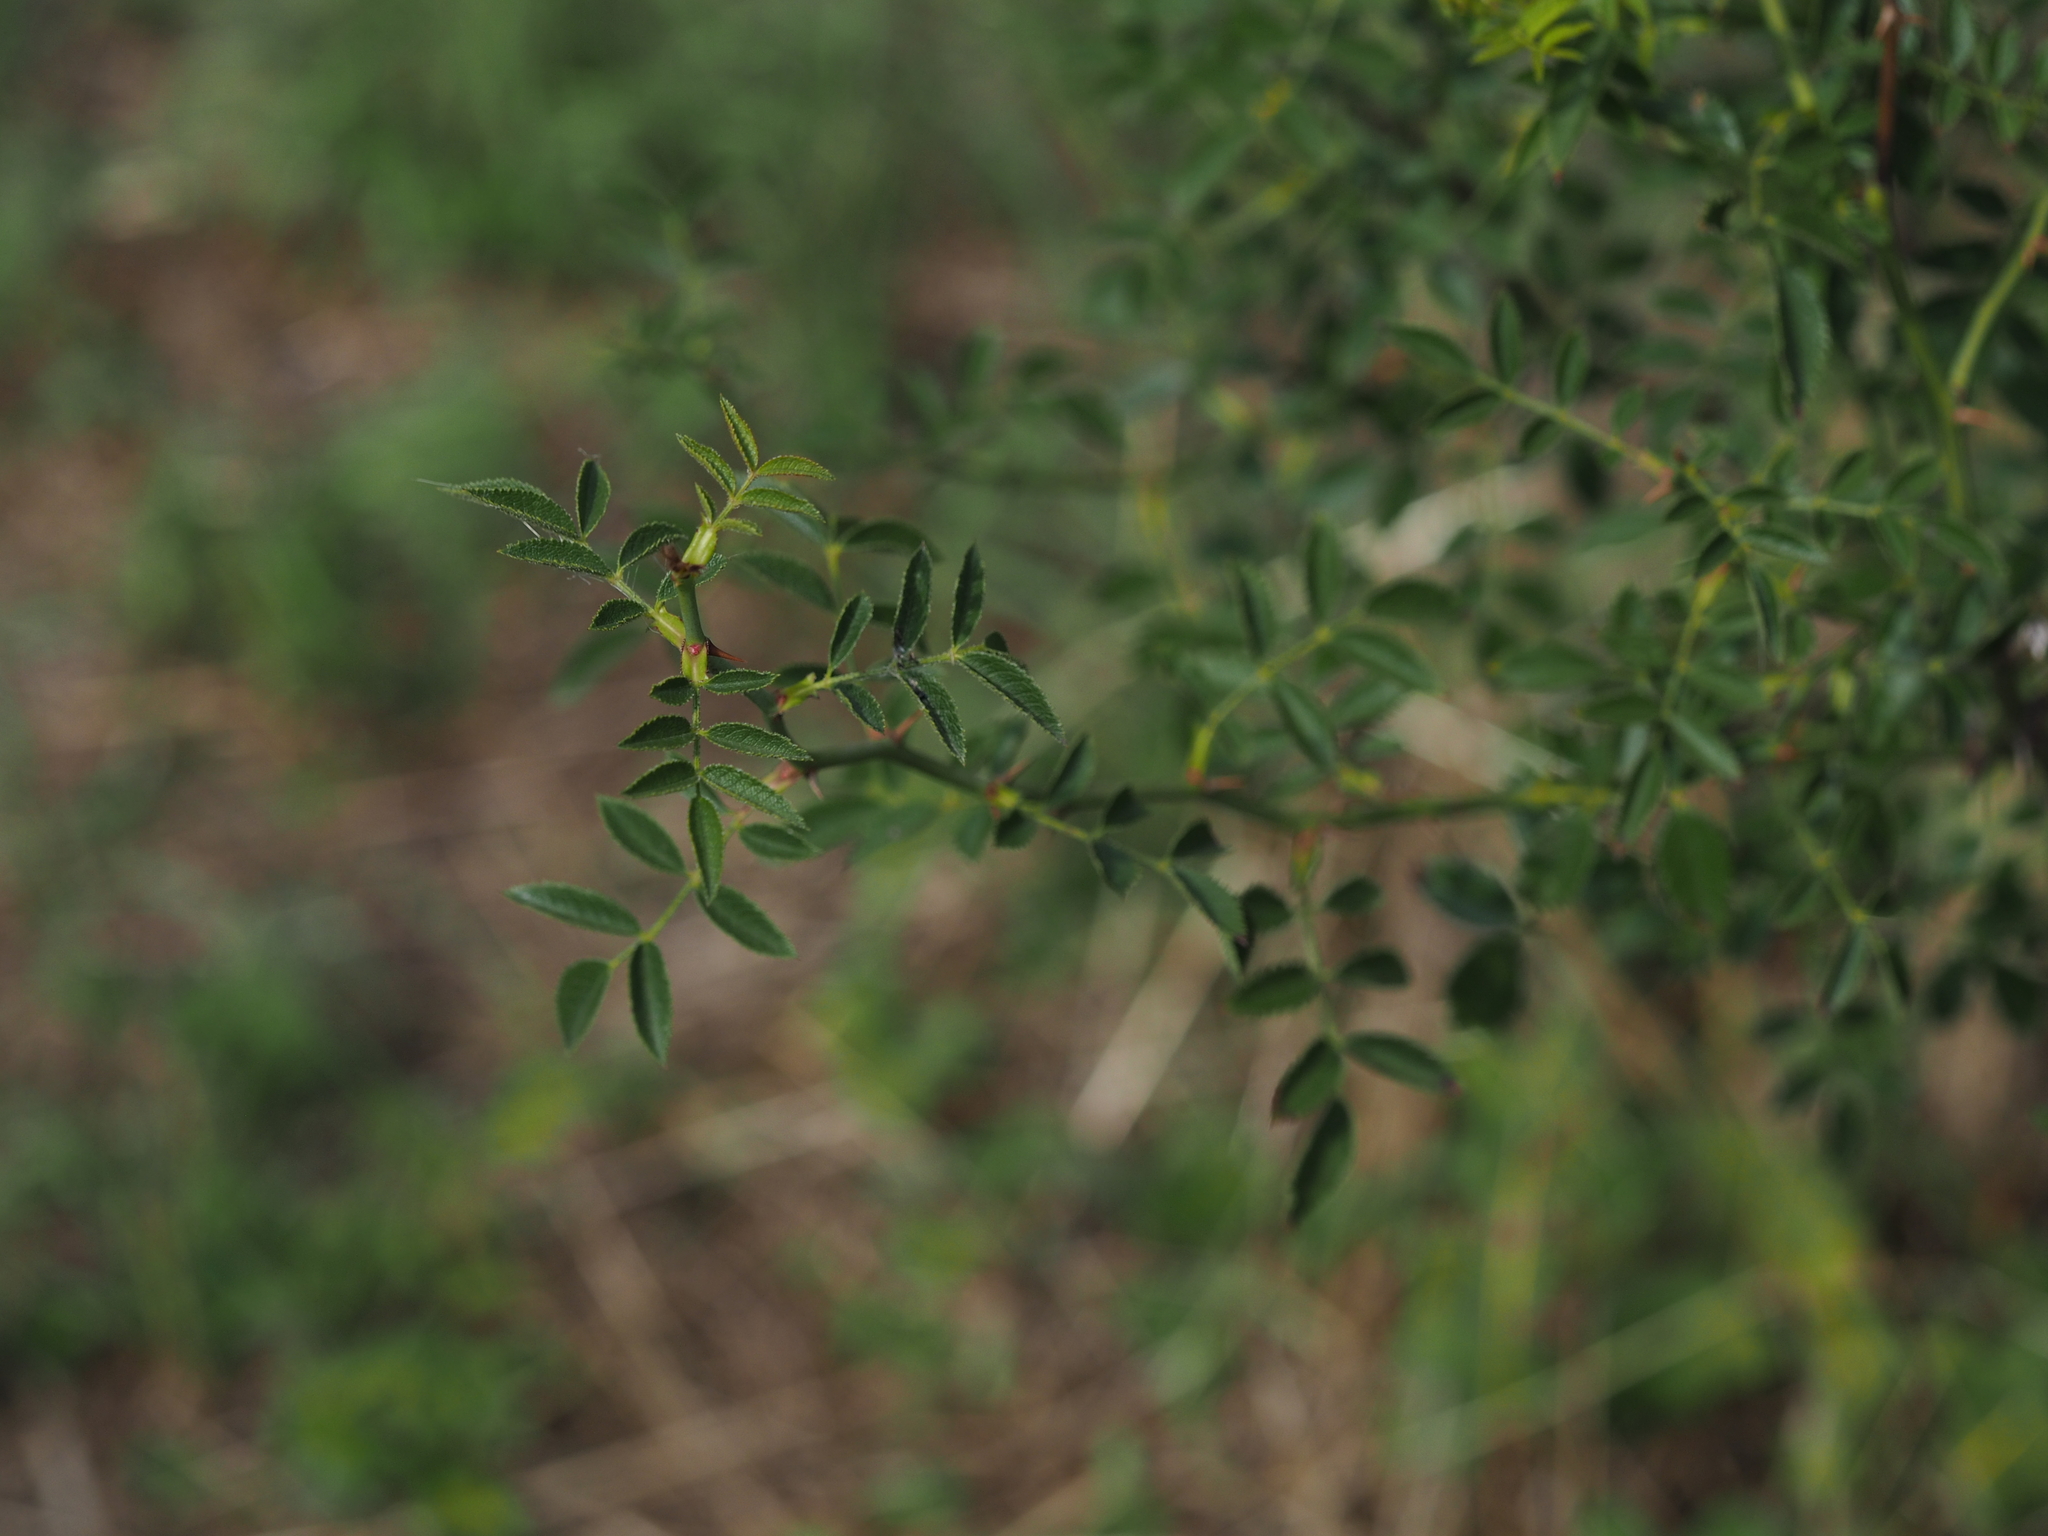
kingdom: Plantae
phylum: Tracheophyta
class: Magnoliopsida
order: Rosales
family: Rosaceae
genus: Rosa
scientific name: Rosa agrestis
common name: Fieldbriar
